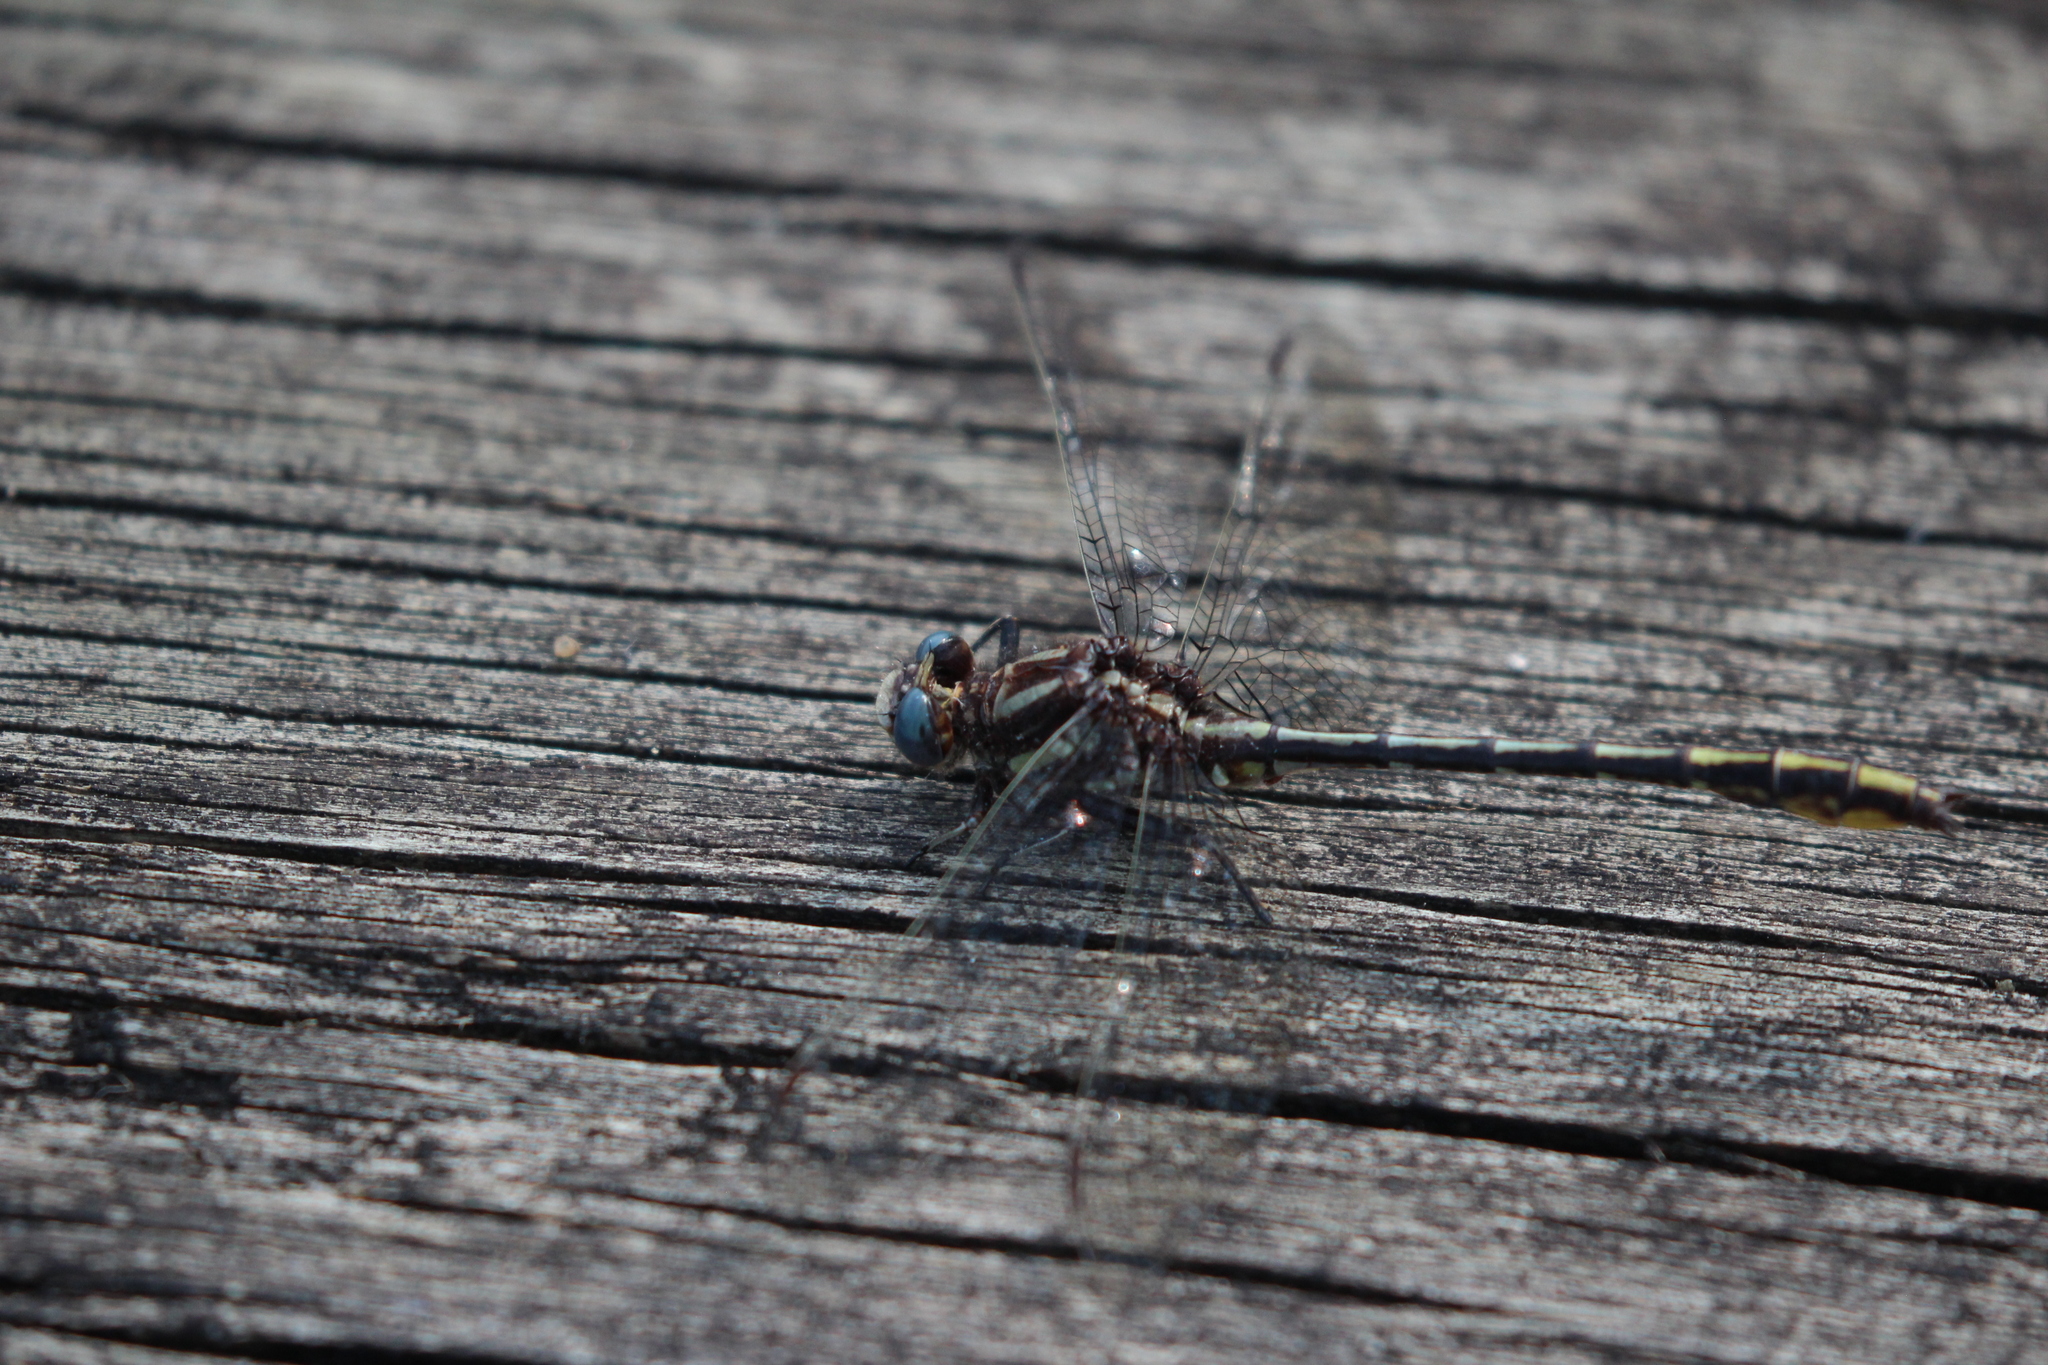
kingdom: Animalia
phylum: Arthropoda
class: Insecta
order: Odonata
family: Gomphidae
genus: Phanogomphus
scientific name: Phanogomphus exilis
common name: Lancet clubtail
